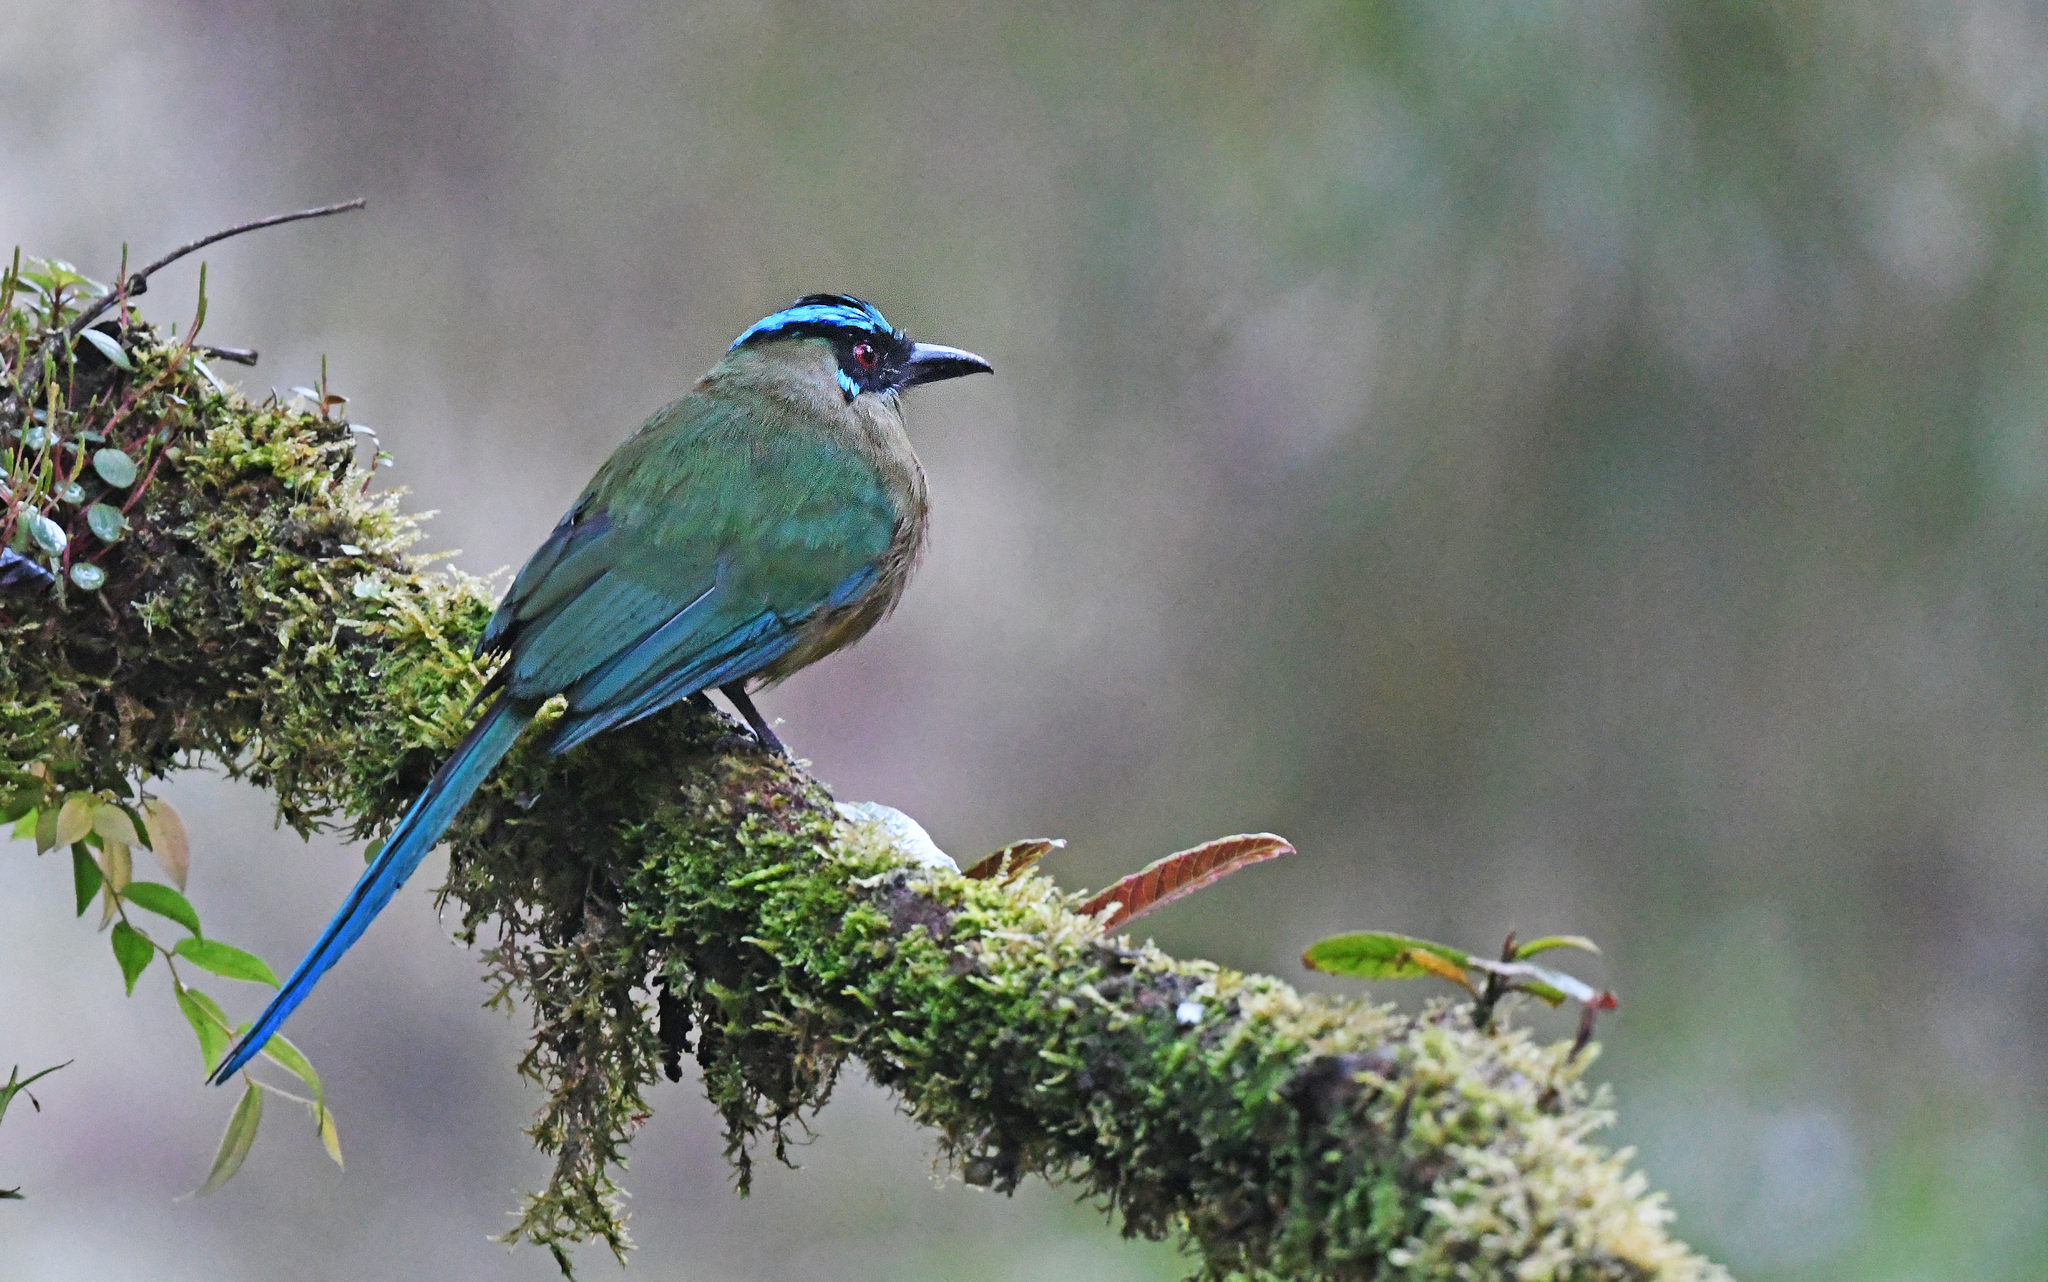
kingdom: Animalia
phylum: Chordata
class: Aves
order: Coraciiformes
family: Momotidae
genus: Momotus
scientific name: Momotus aequatorialis
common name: Andean motmot
